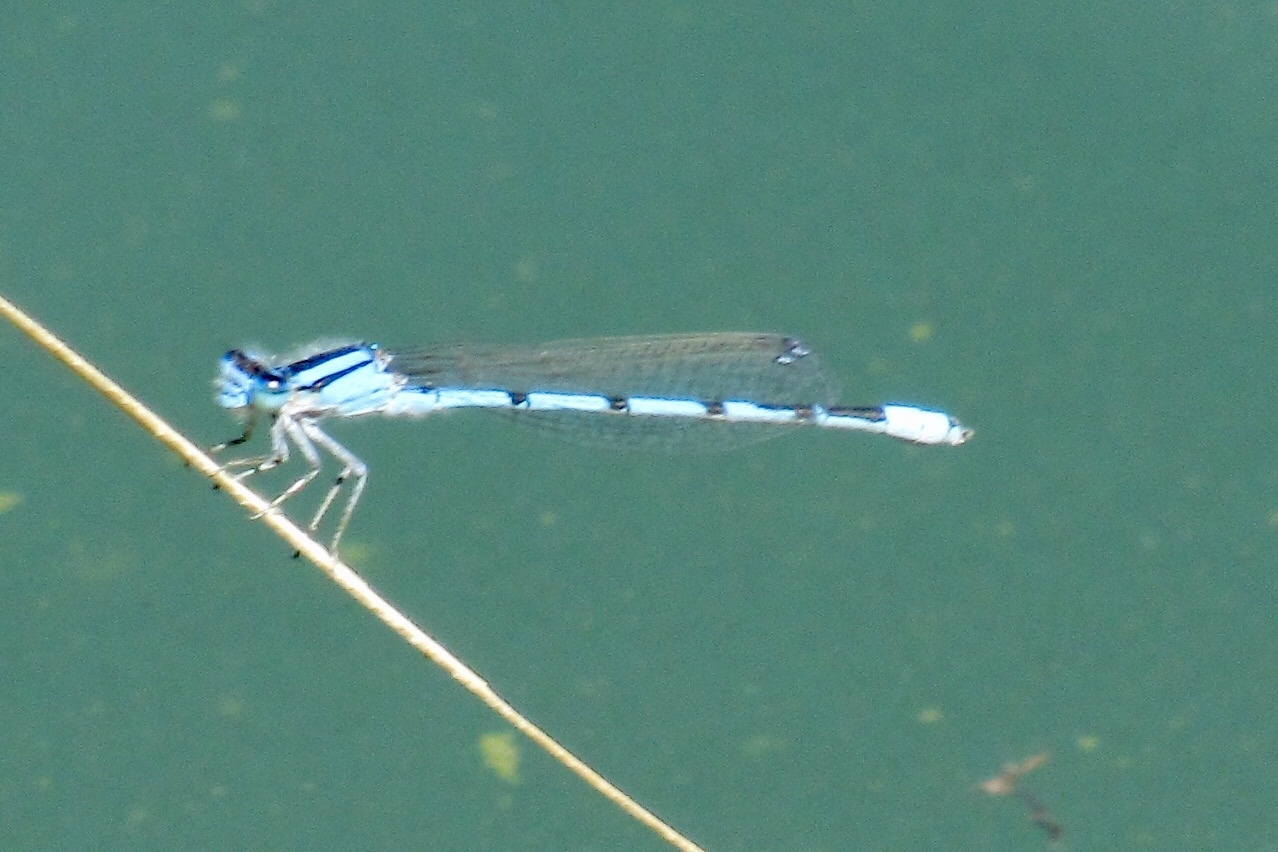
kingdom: Animalia
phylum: Arthropoda
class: Insecta
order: Odonata
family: Coenagrionidae
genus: Enallagma
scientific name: Enallagma civile
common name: Damselfly
